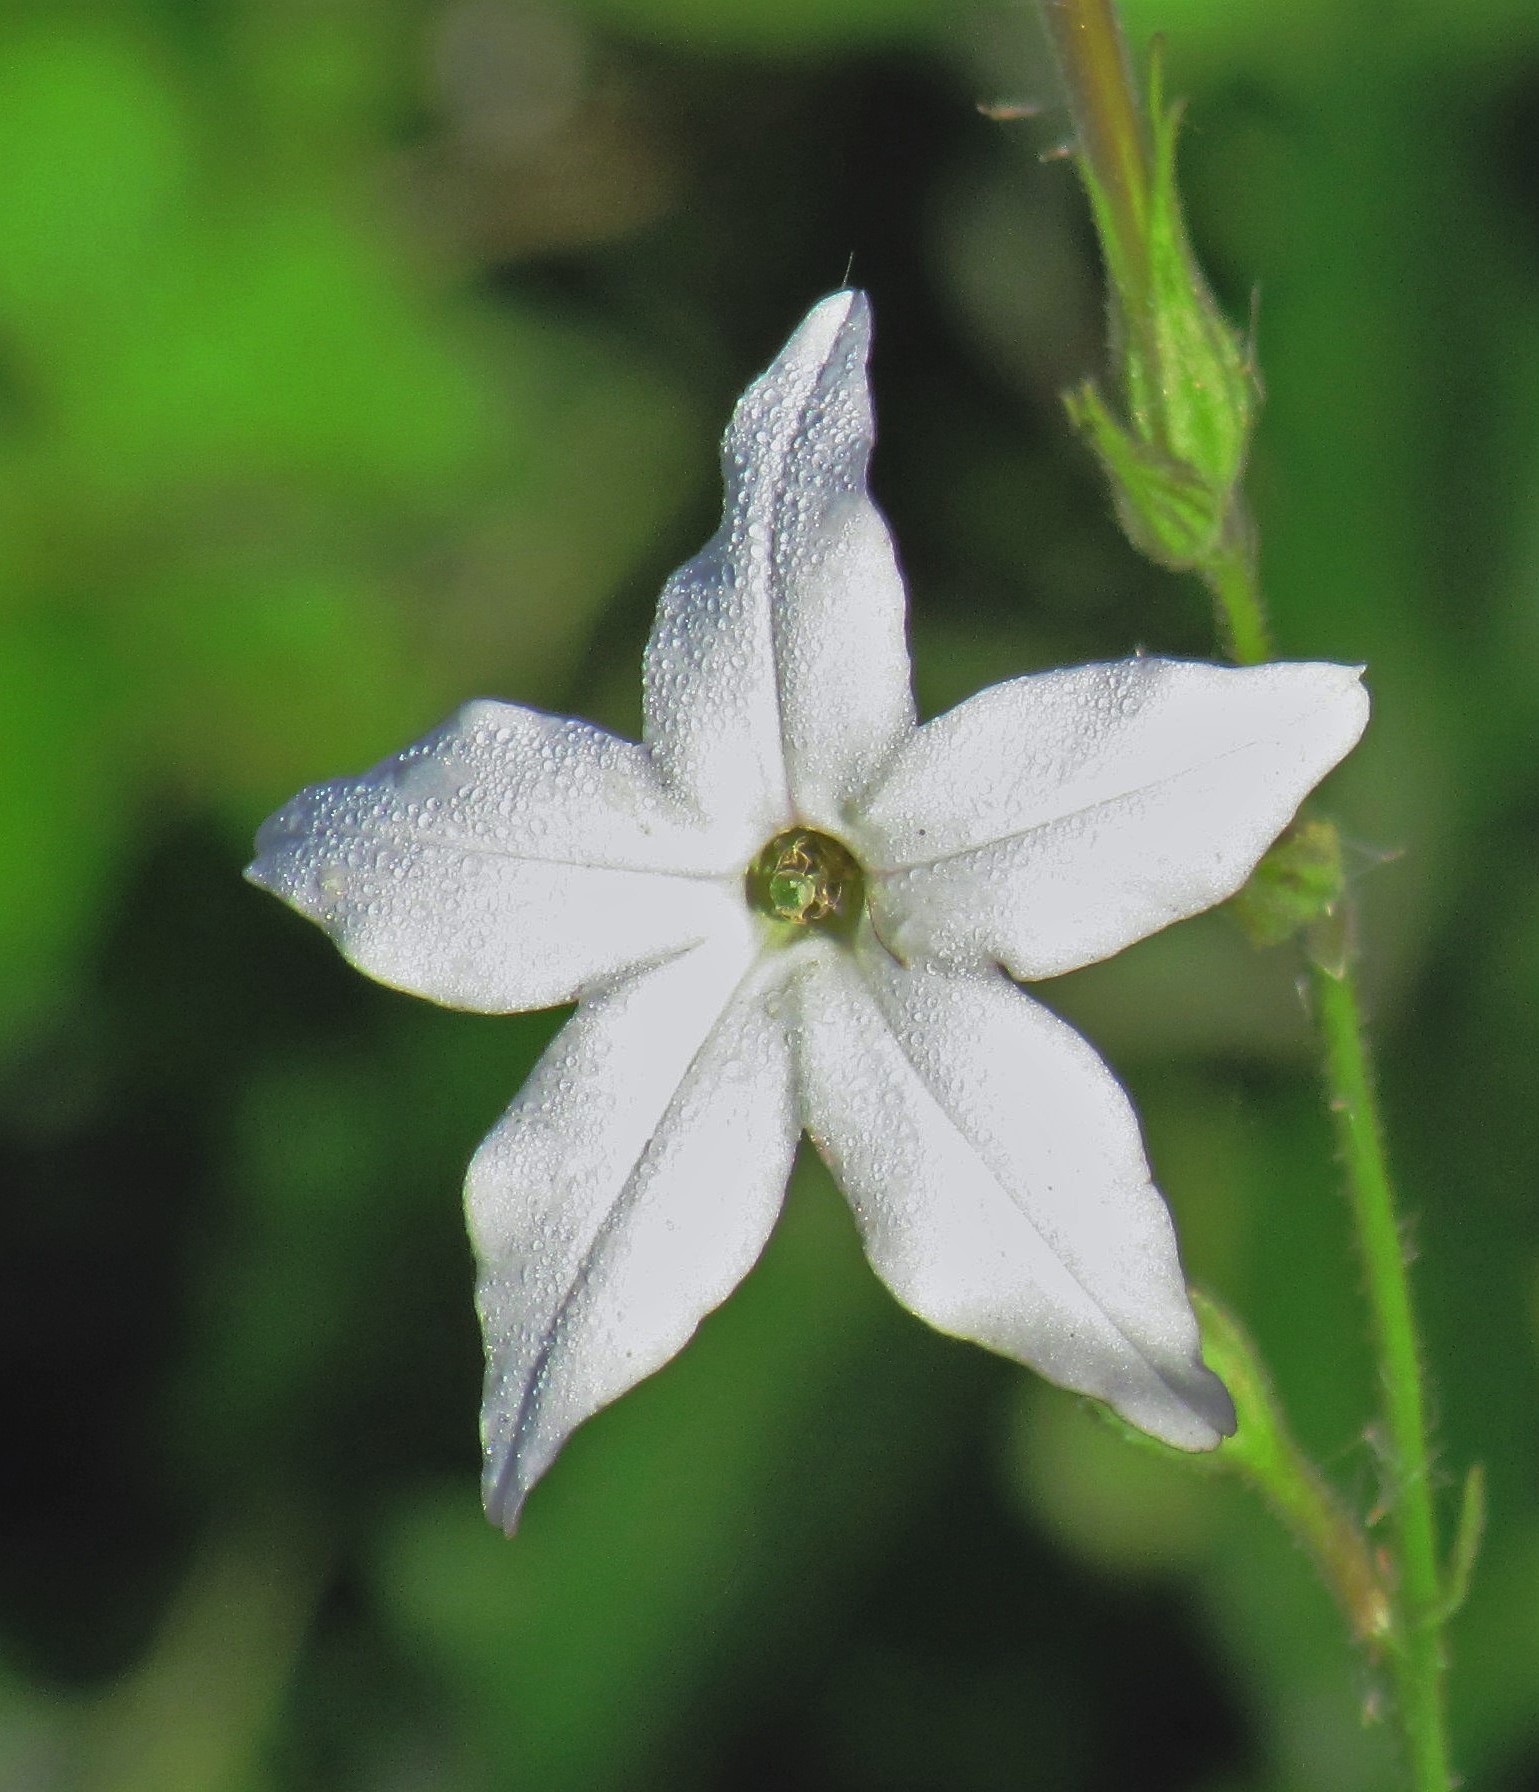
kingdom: Plantae
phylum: Tracheophyta
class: Magnoliopsida
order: Solanales
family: Solanaceae
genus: Nicotiana
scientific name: Nicotiana longiflora
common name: Long-flowered tobacco
